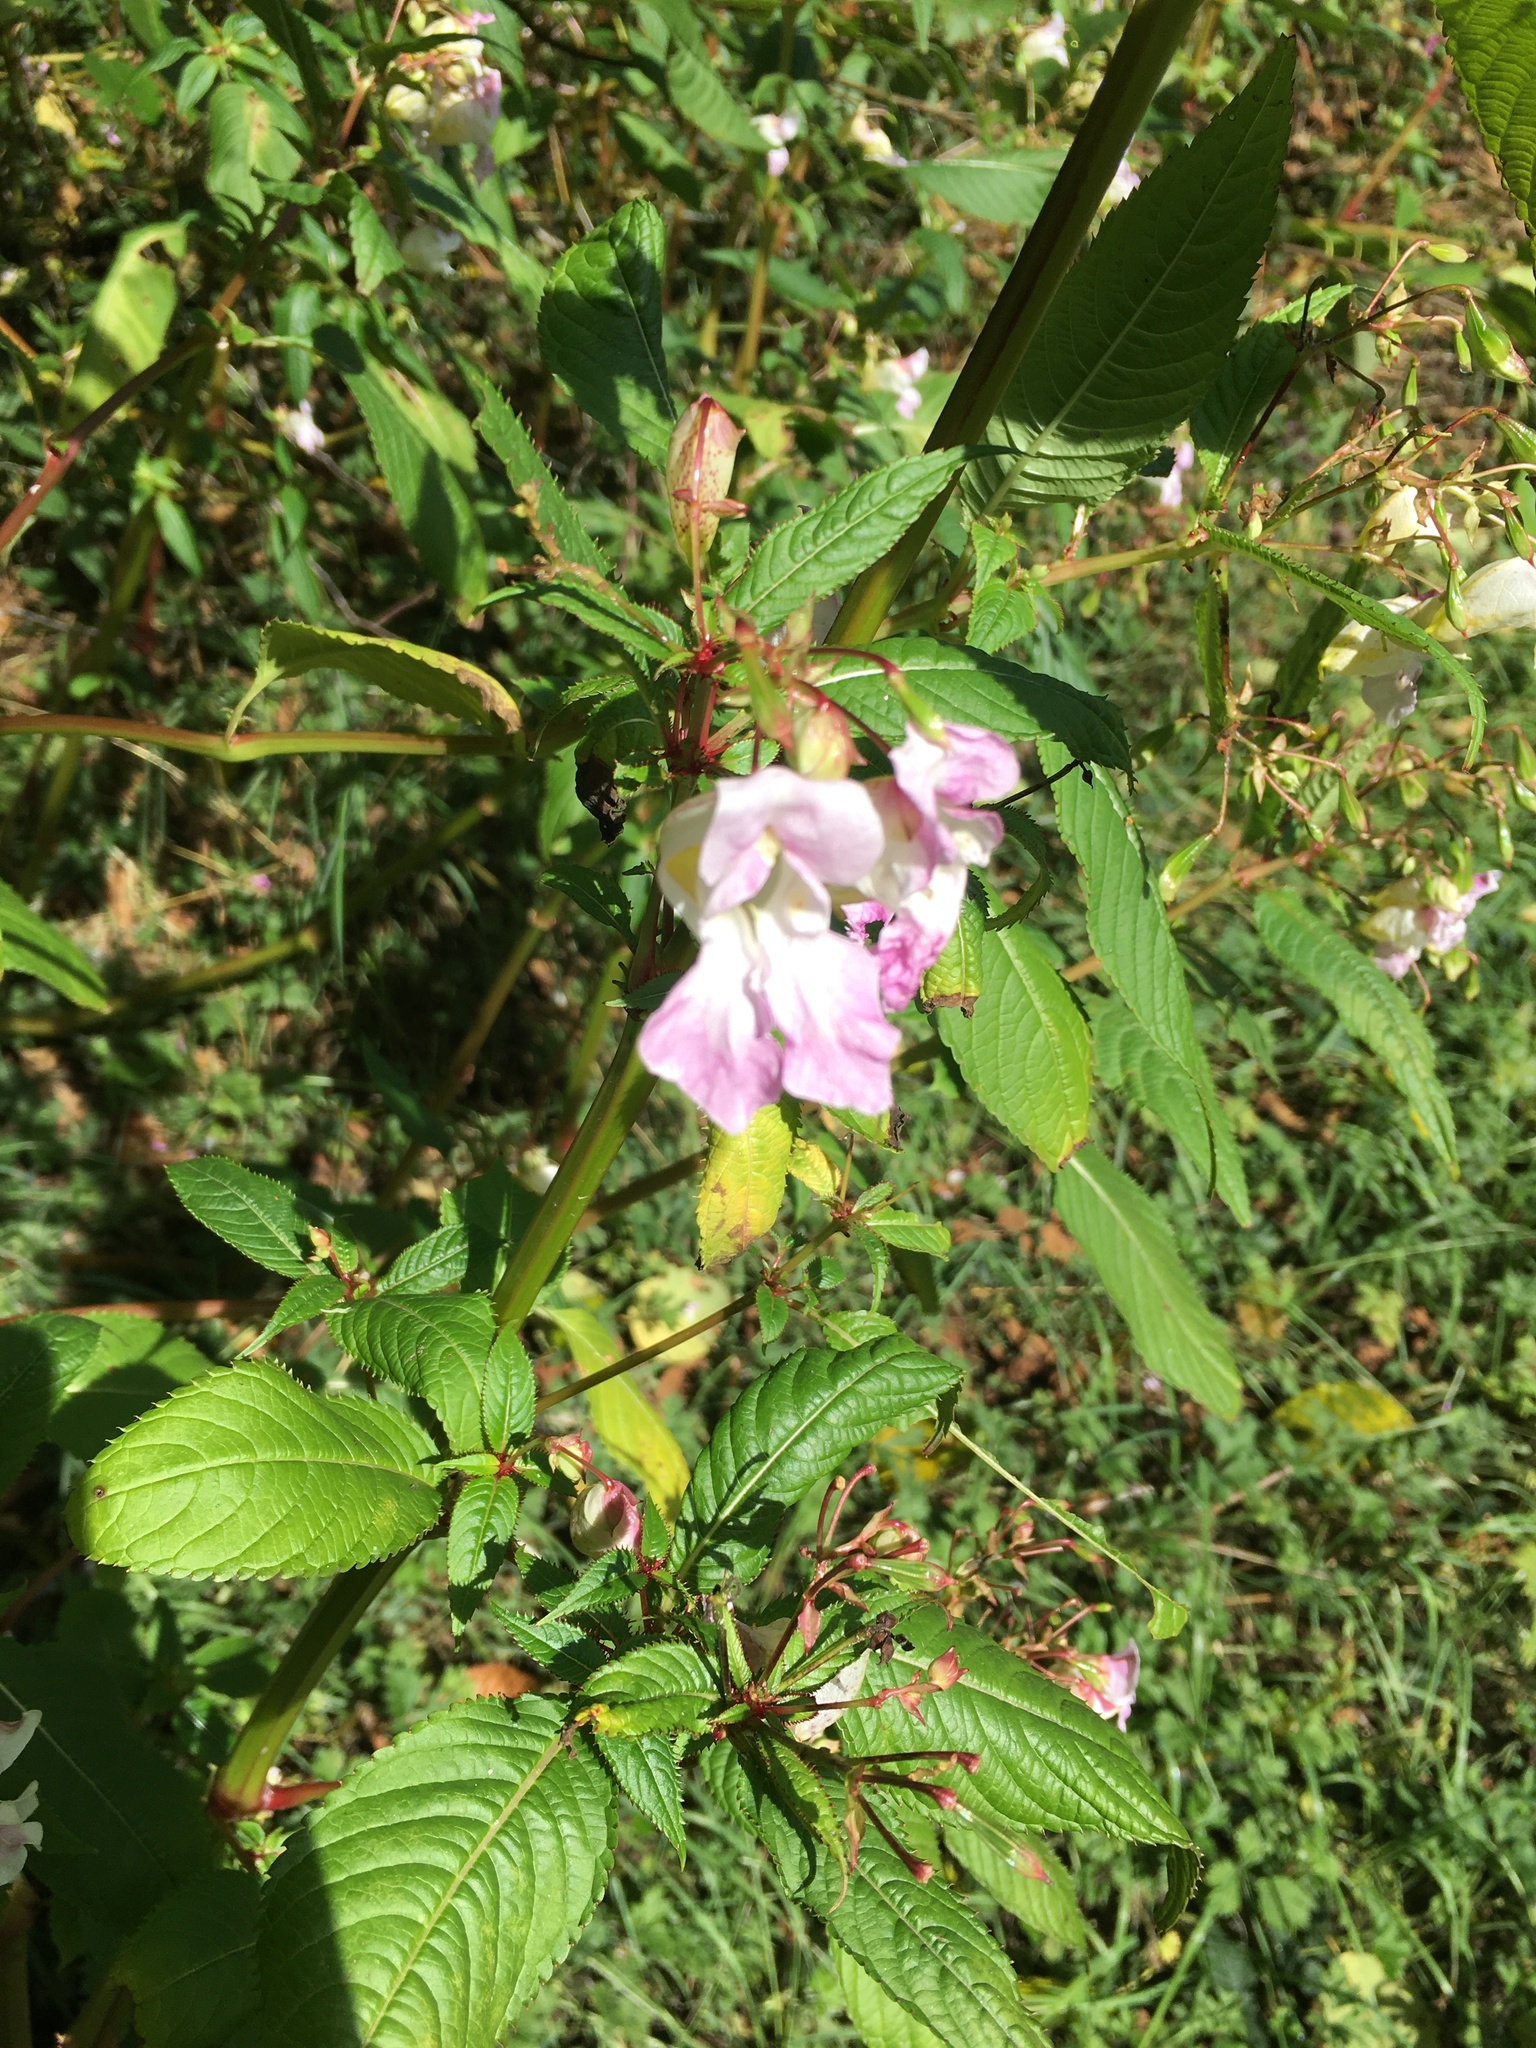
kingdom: Plantae
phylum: Tracheophyta
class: Magnoliopsida
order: Ericales
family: Balsaminaceae
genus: Impatiens
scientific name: Impatiens glandulifera
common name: Himalayan balsam
